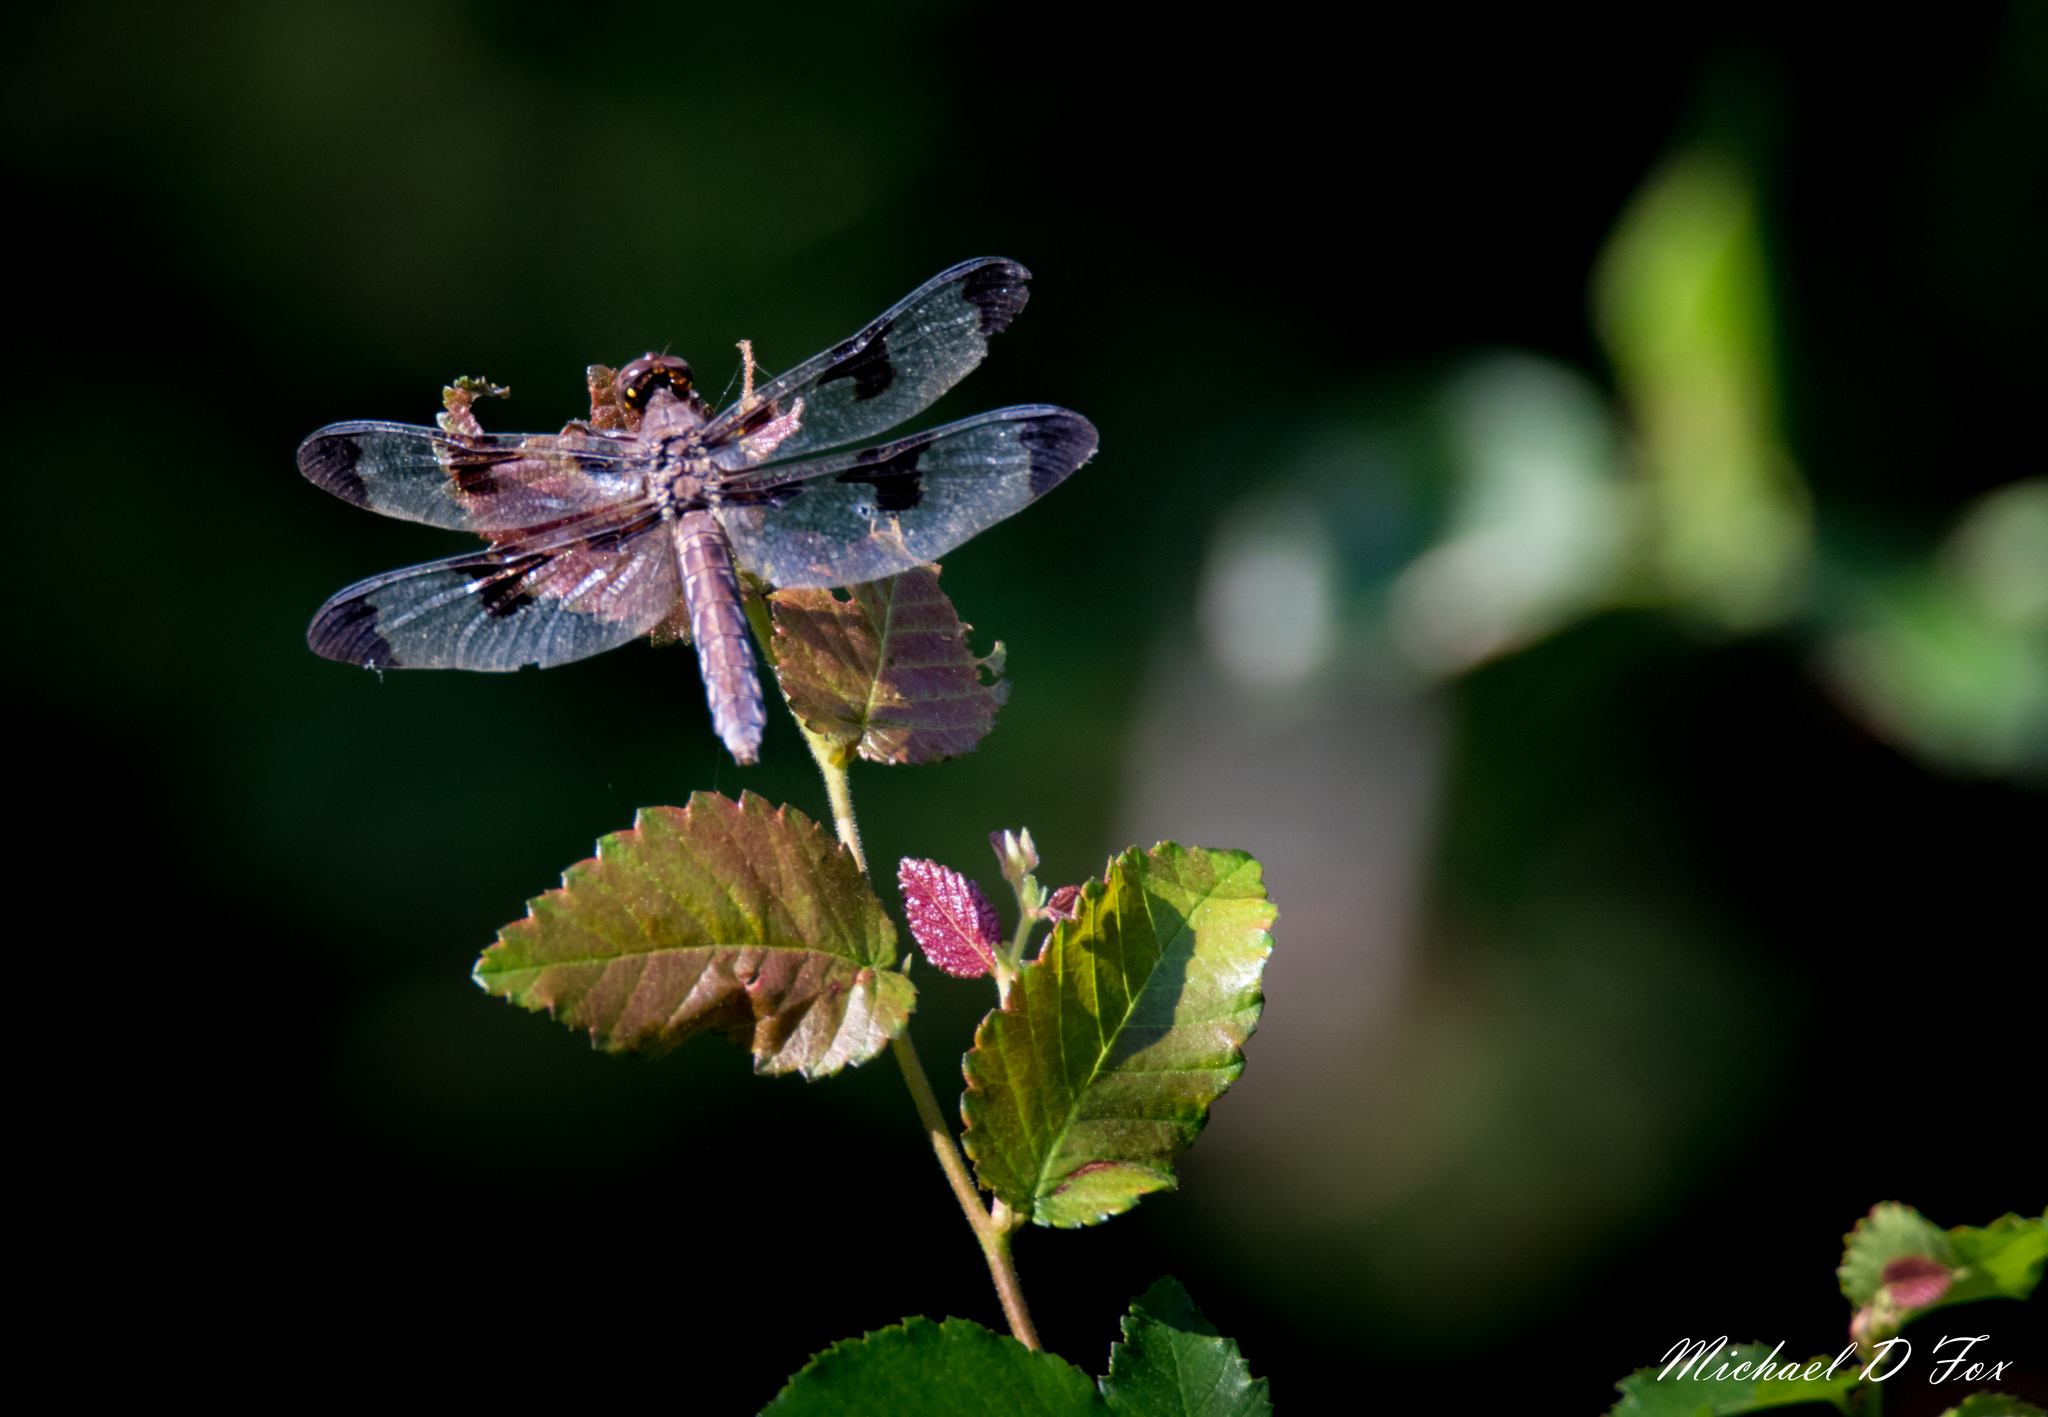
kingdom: Animalia
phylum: Arthropoda
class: Insecta
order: Odonata
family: Libellulidae
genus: Plathemis
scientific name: Plathemis lydia
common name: Common whitetail
